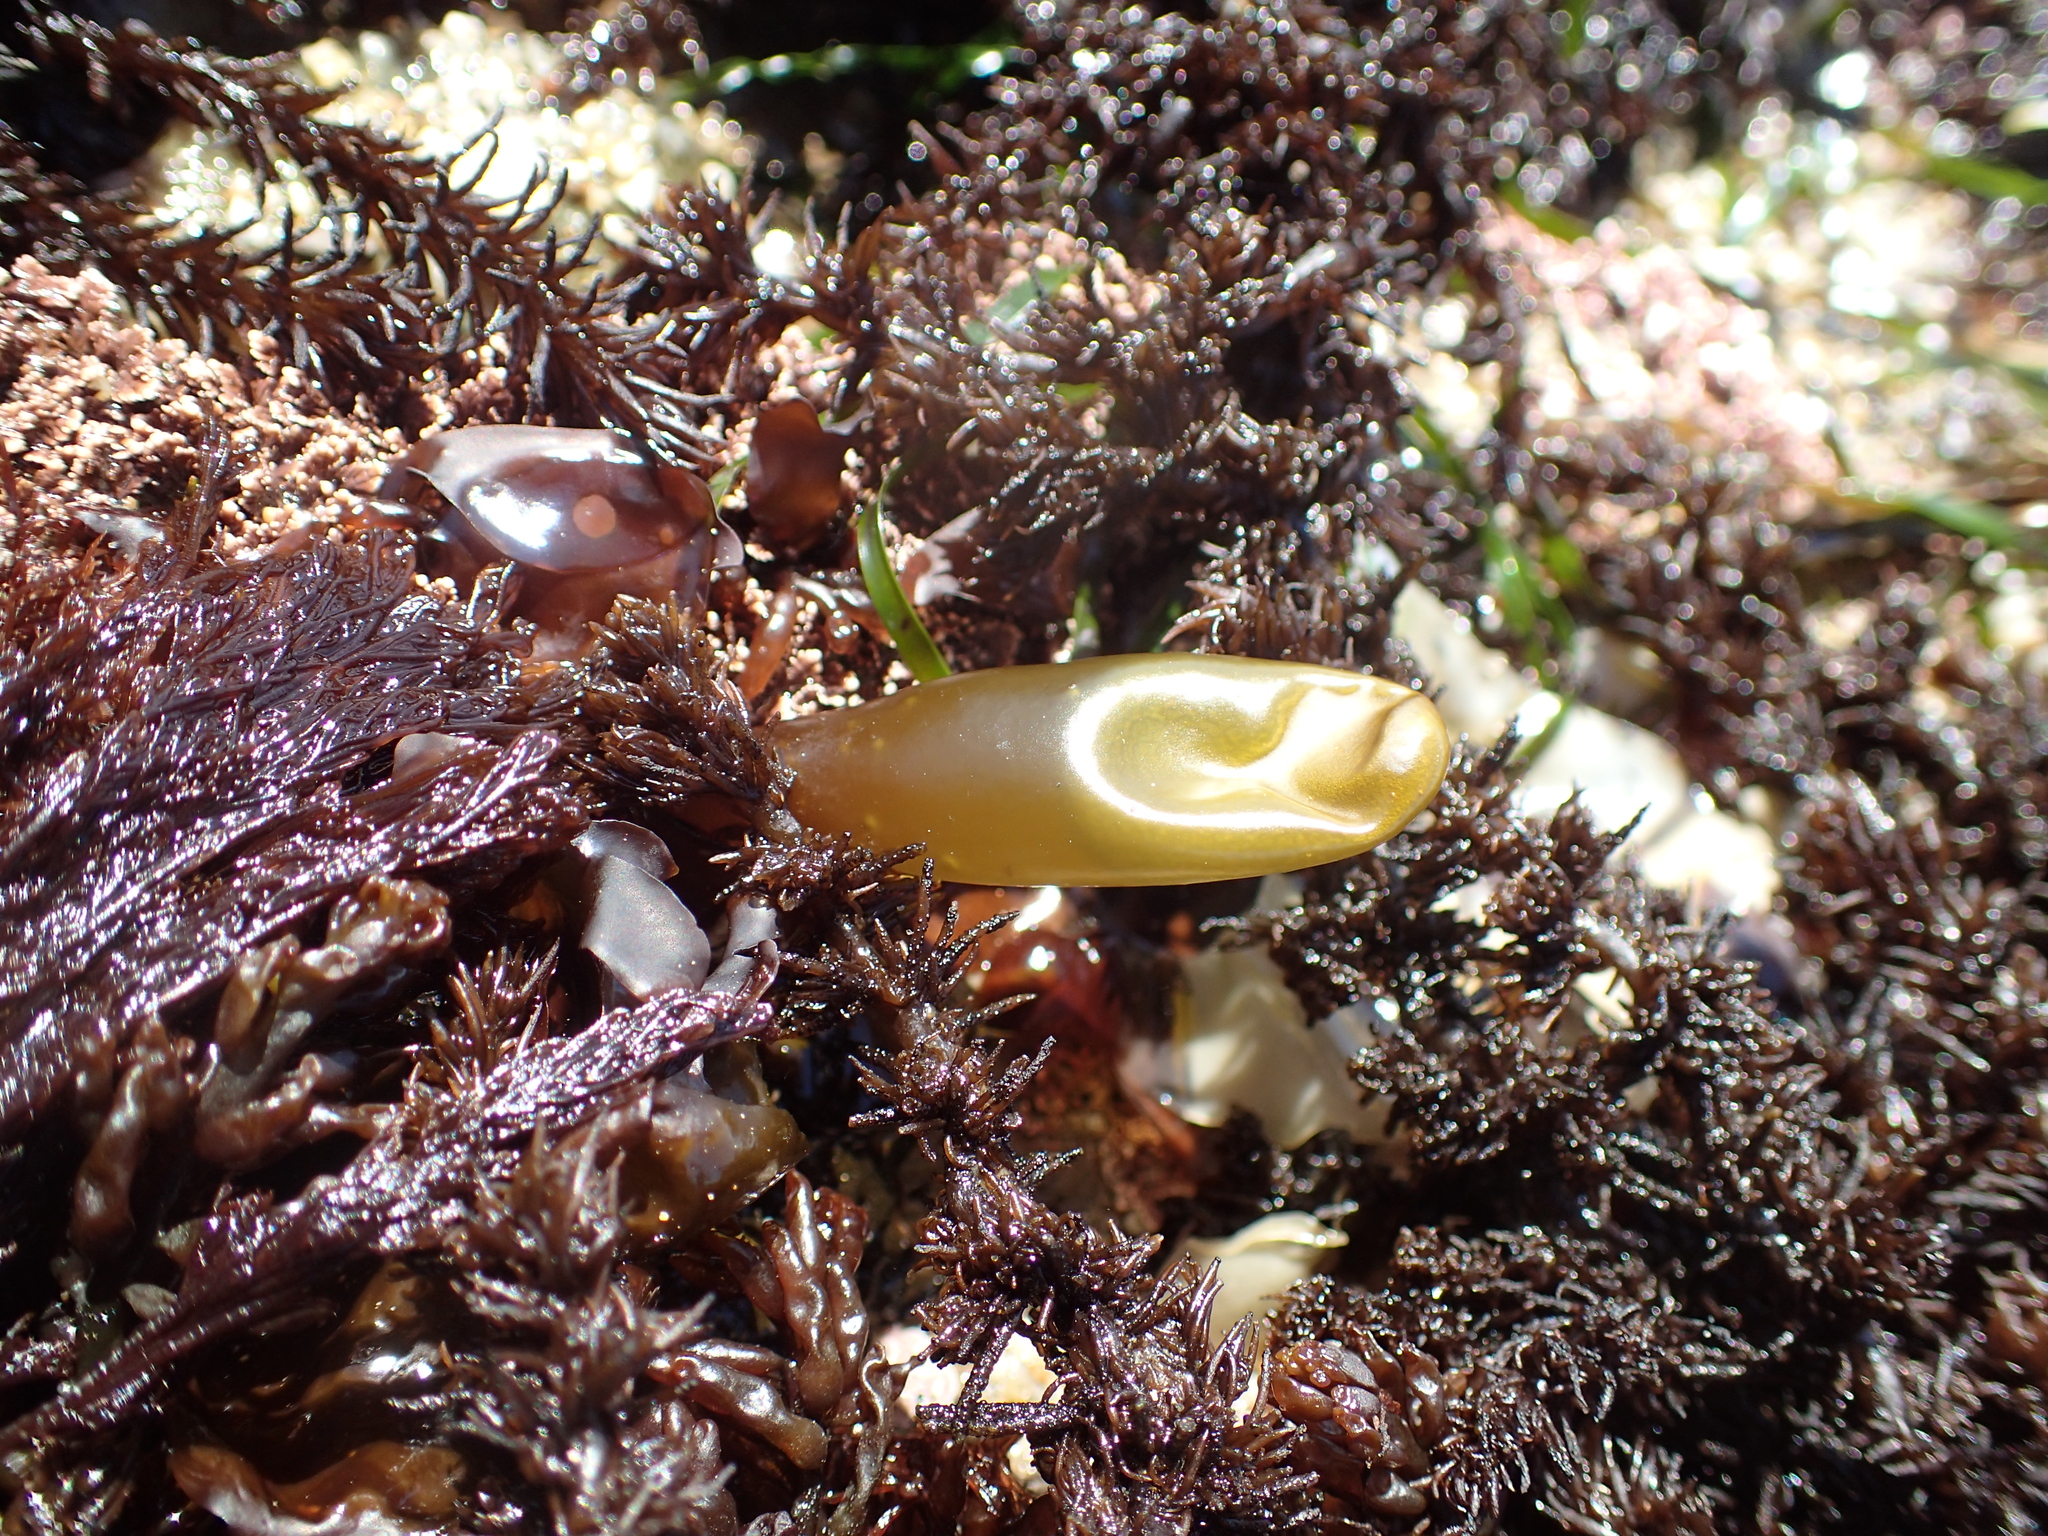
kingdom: Plantae
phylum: Rhodophyta
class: Florideophyceae
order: Palmariales
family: Palmariaceae
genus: Halosaccion
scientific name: Halosaccion glandiforme
